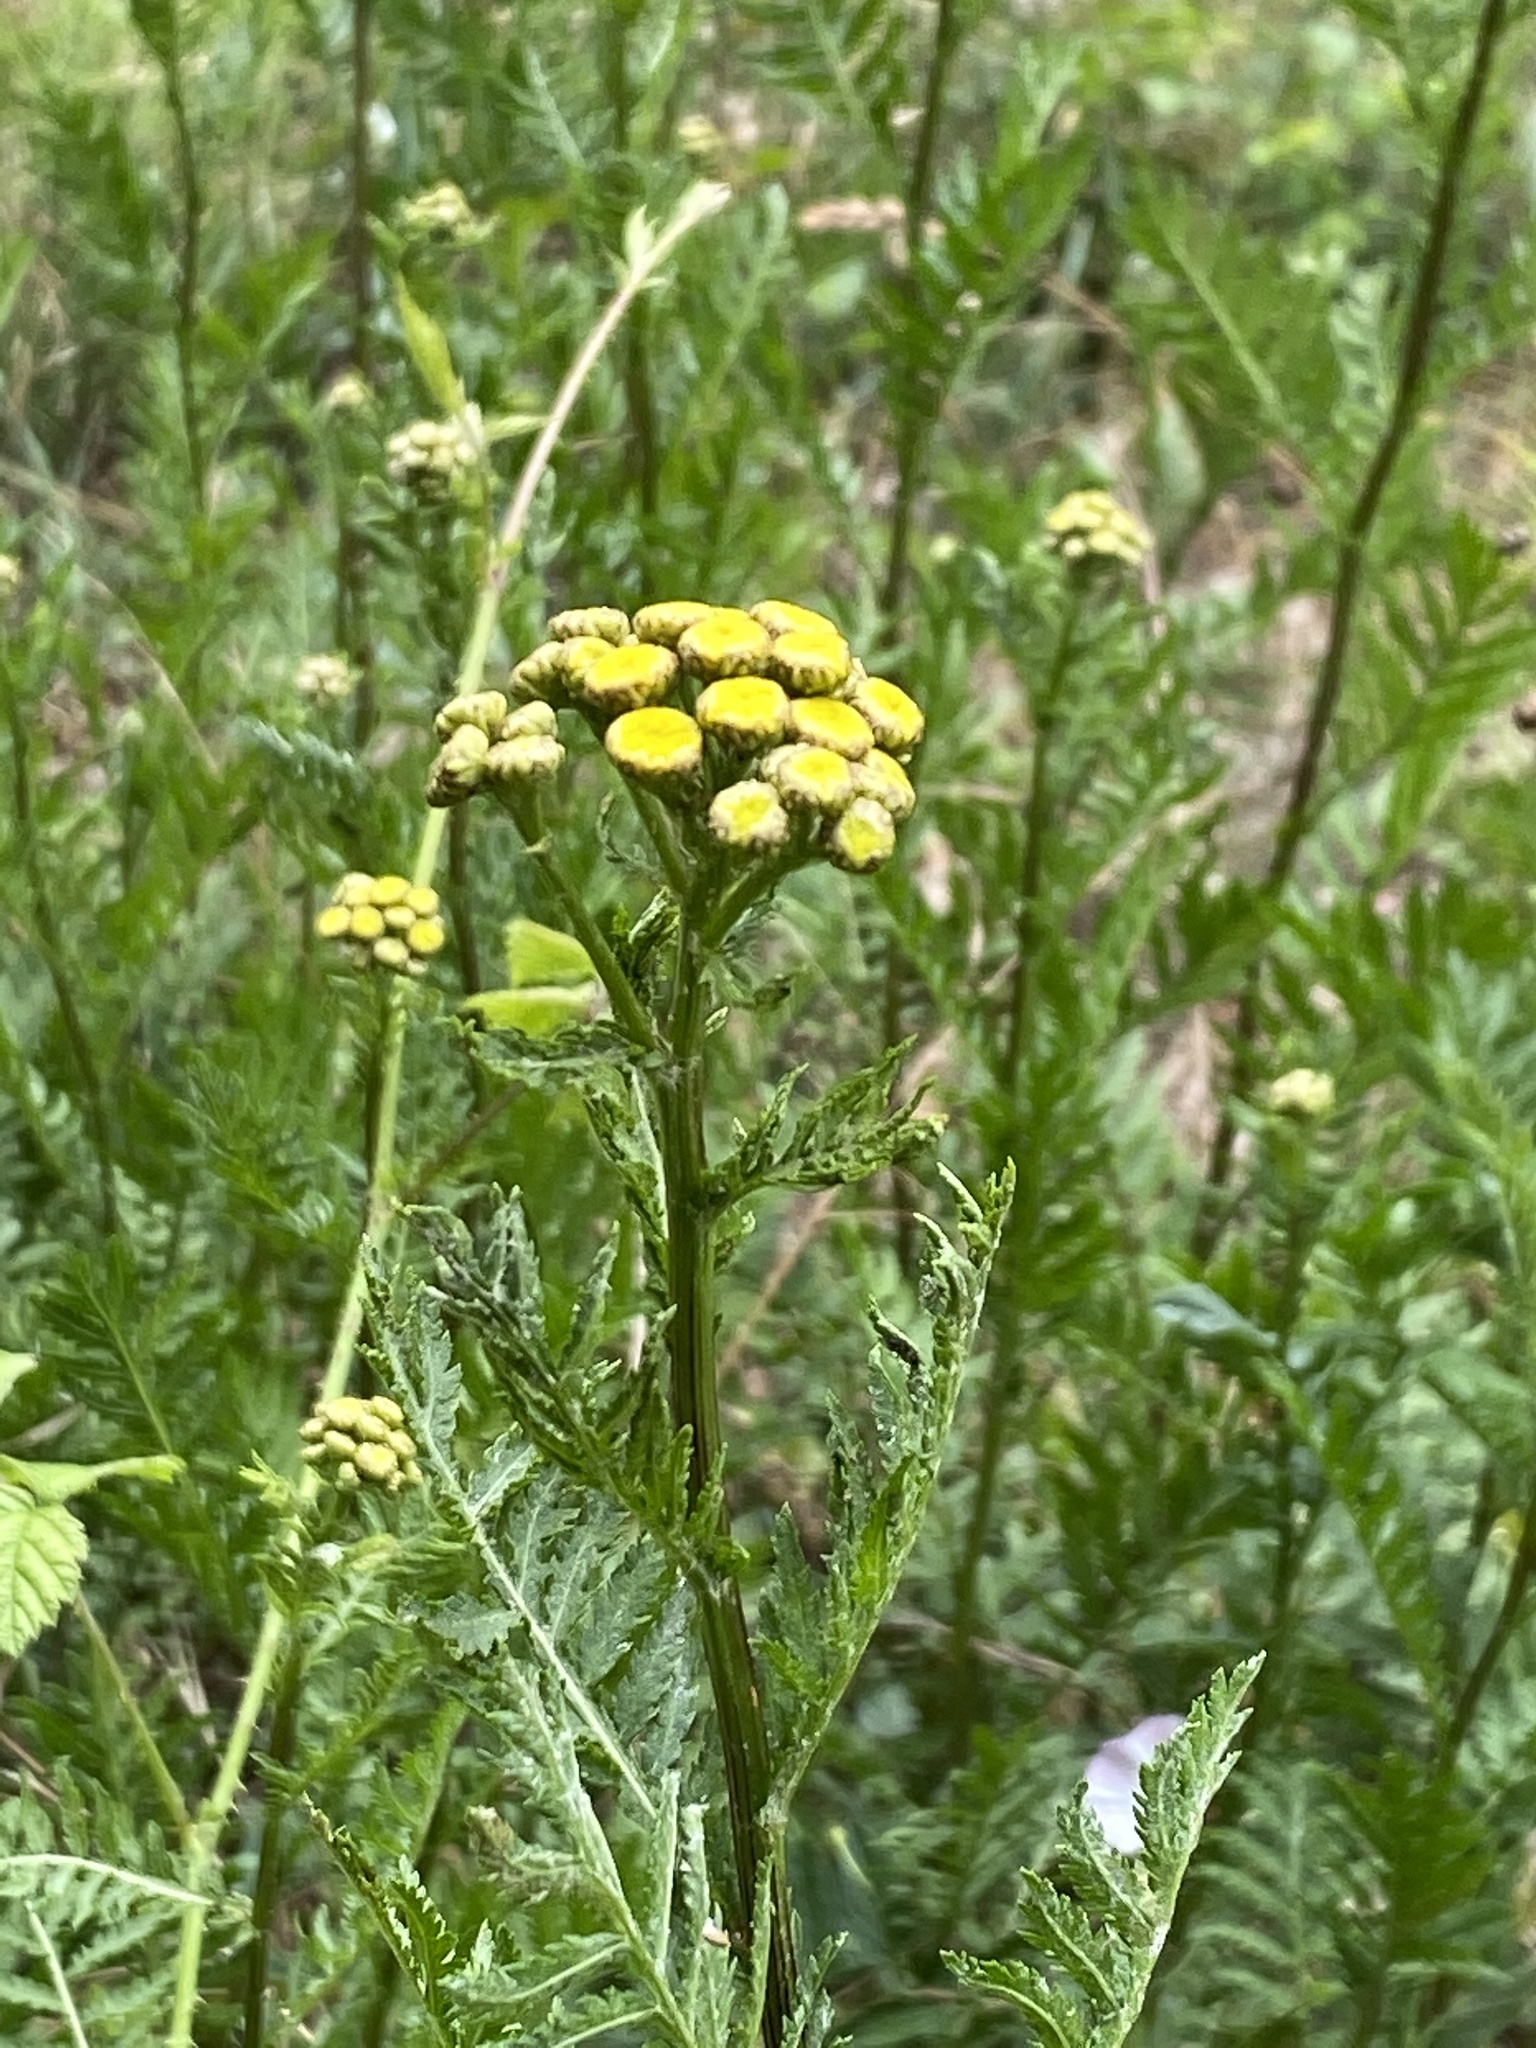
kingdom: Plantae
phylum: Tracheophyta
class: Magnoliopsida
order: Asterales
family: Asteraceae
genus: Tanacetum
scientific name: Tanacetum vulgare
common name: Common tansy
